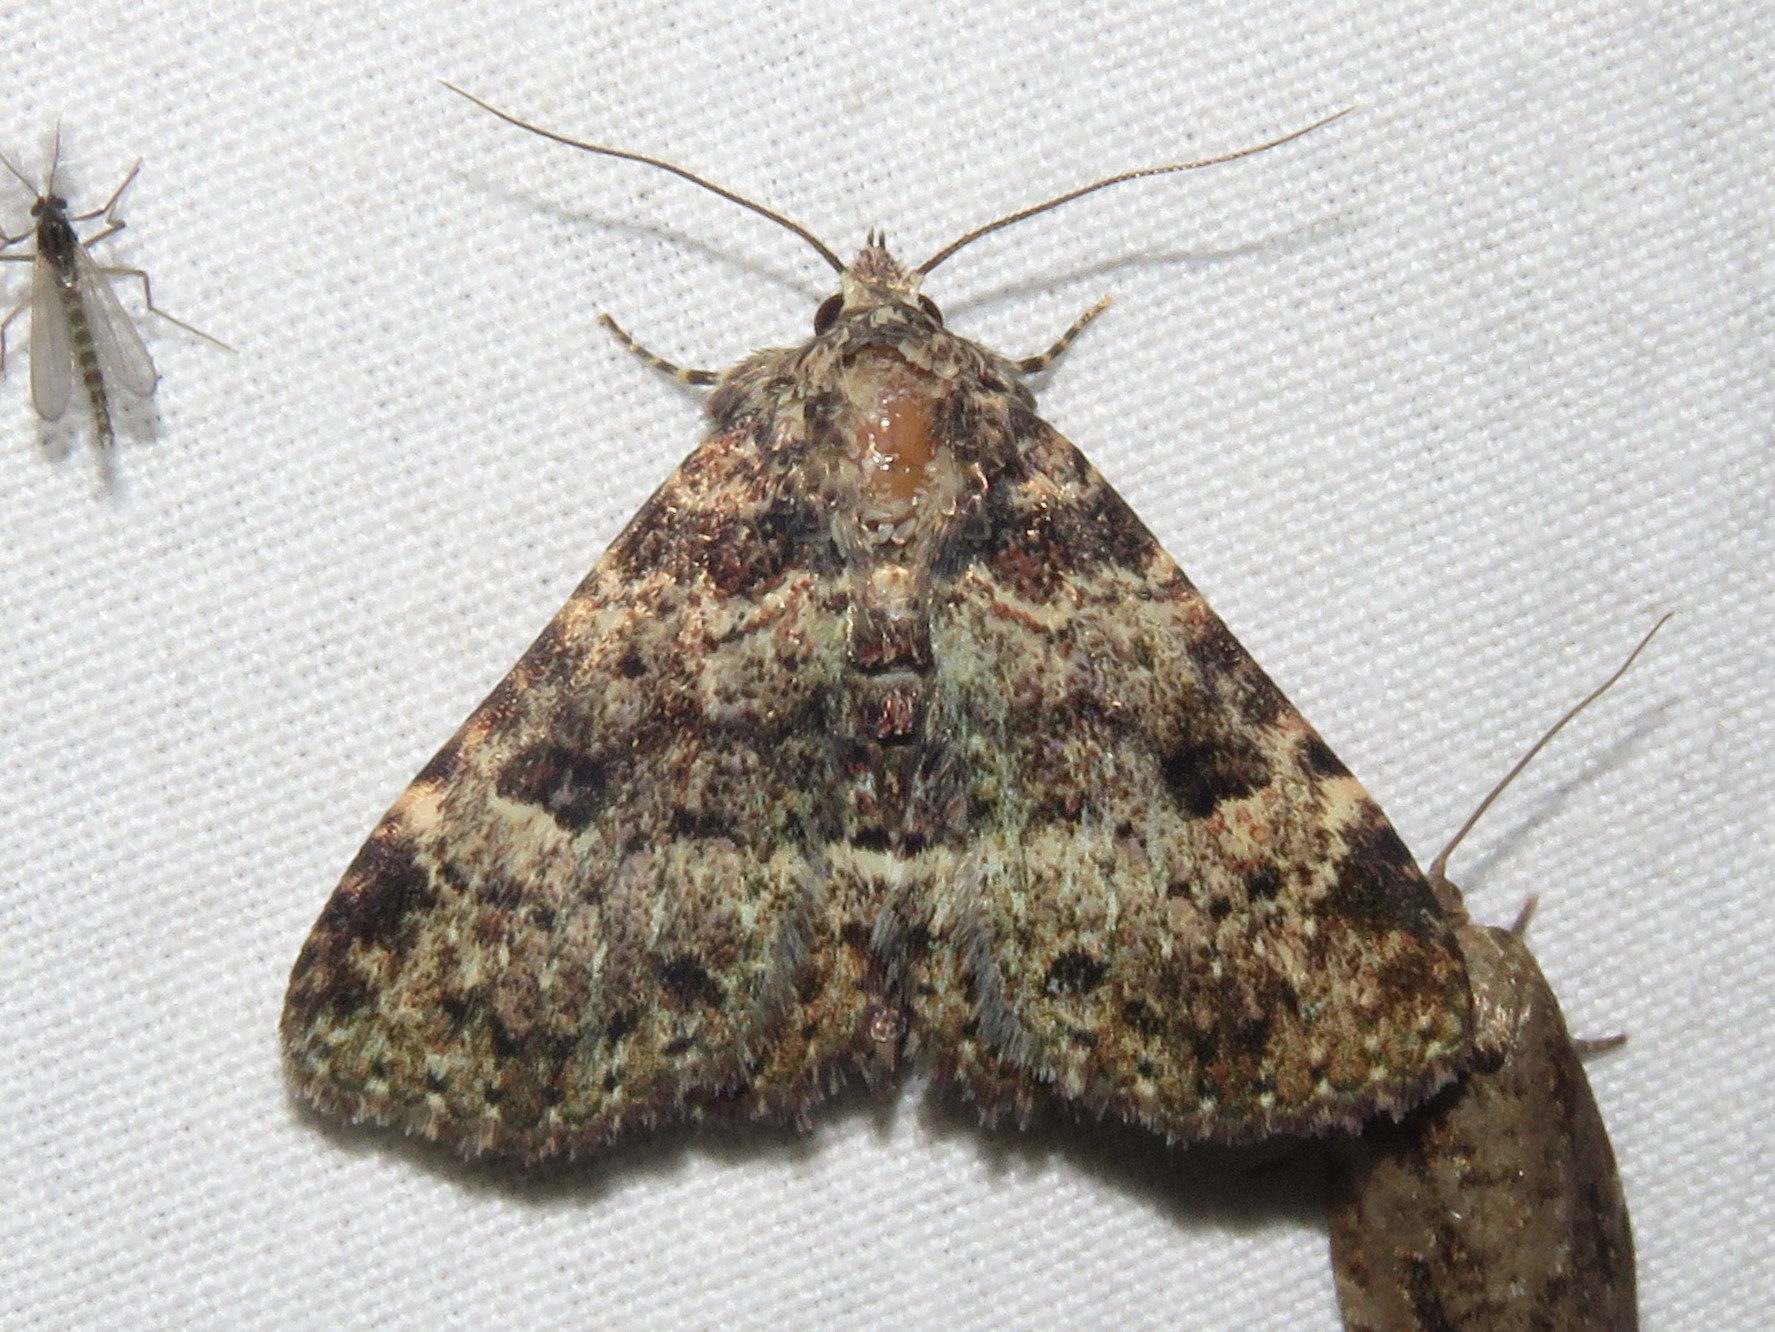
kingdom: Animalia
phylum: Arthropoda
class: Insecta
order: Lepidoptera
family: Erebidae
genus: Metalectra
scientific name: Metalectra discalis
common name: Common fungus moth
